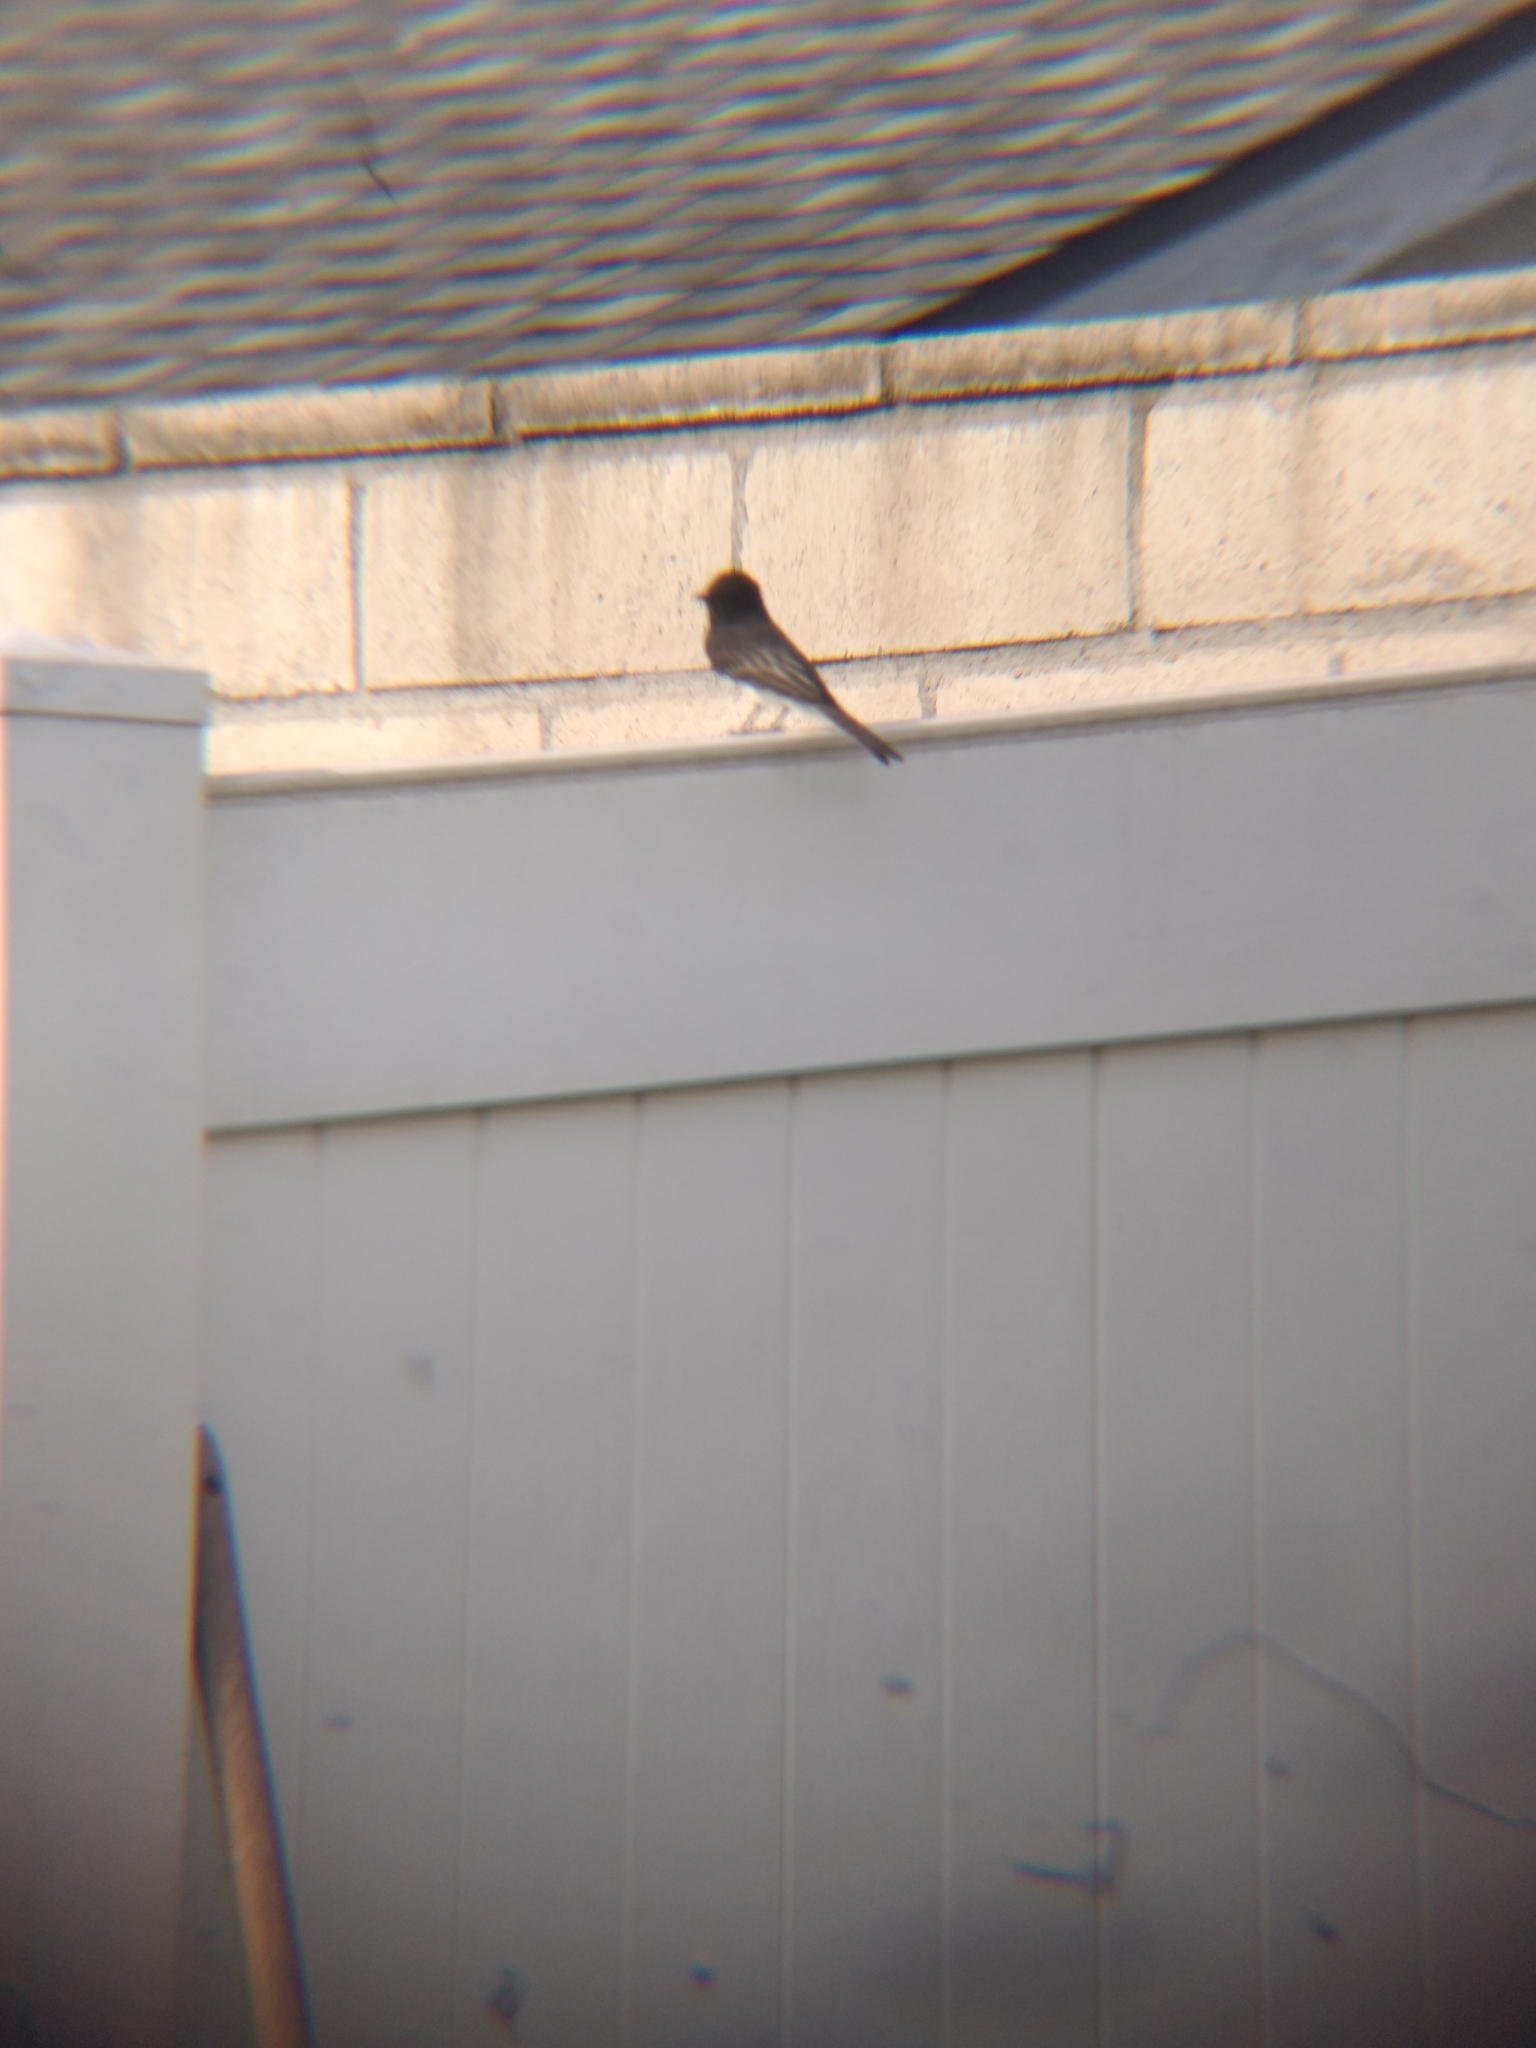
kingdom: Animalia
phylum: Chordata
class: Aves
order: Passeriformes
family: Tyrannidae
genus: Sayornis
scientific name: Sayornis nigricans
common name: Black phoebe
